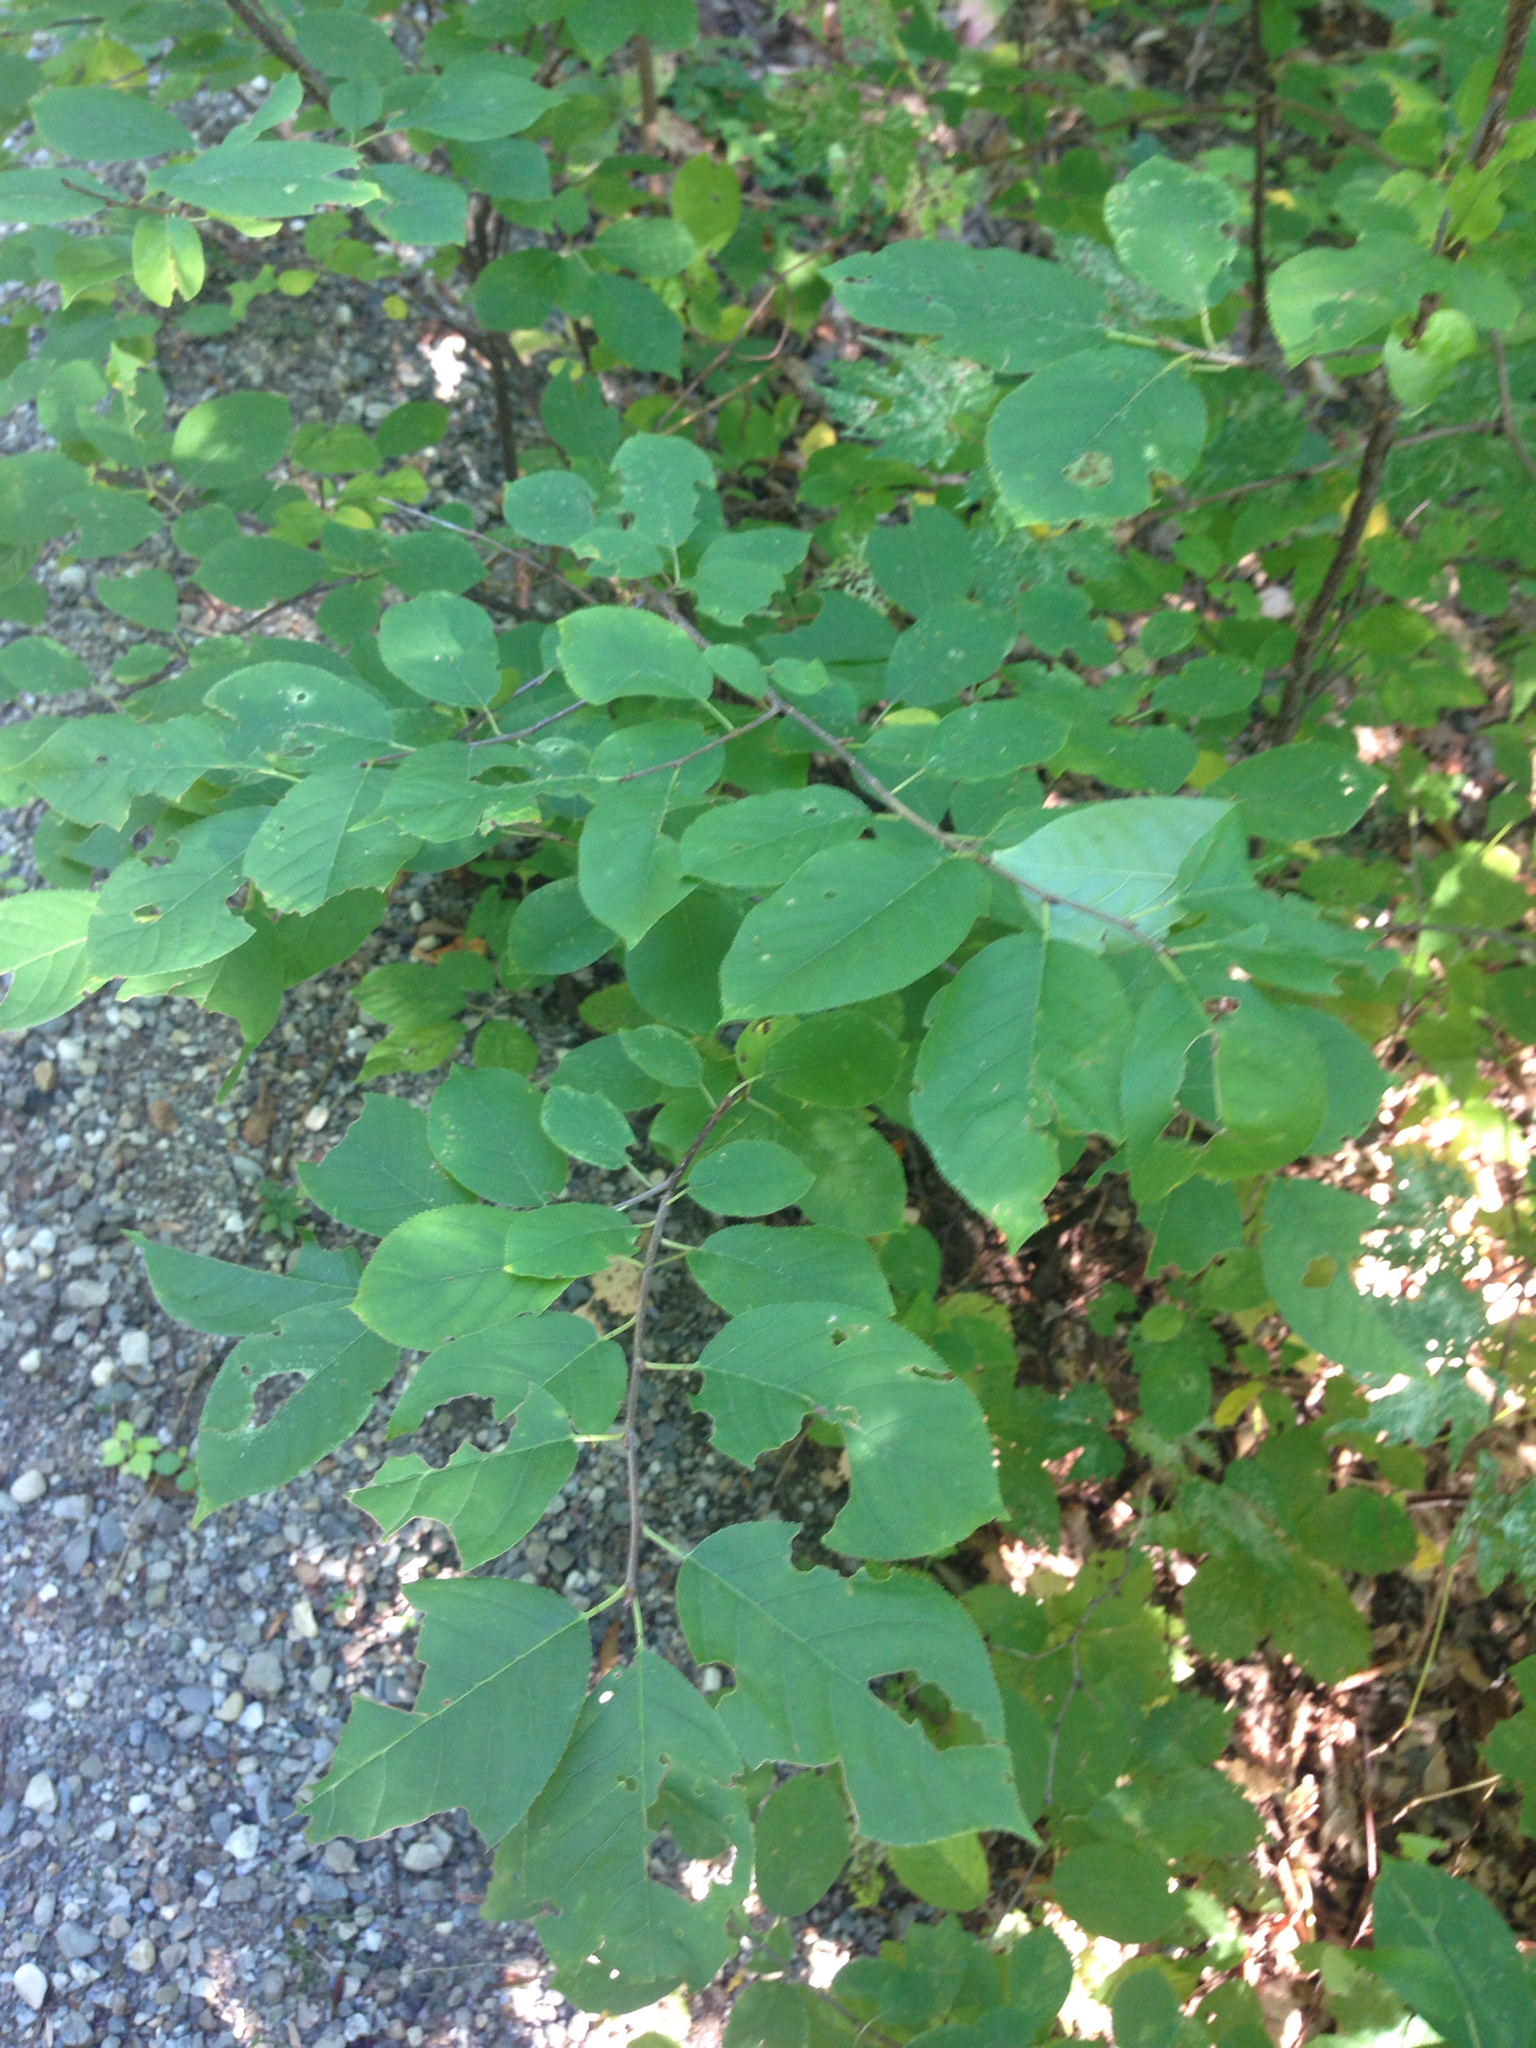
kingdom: Plantae
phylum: Tracheophyta
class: Magnoliopsida
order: Rosales
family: Rosaceae
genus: Prunus
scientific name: Prunus virginiana
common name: Chokecherry
